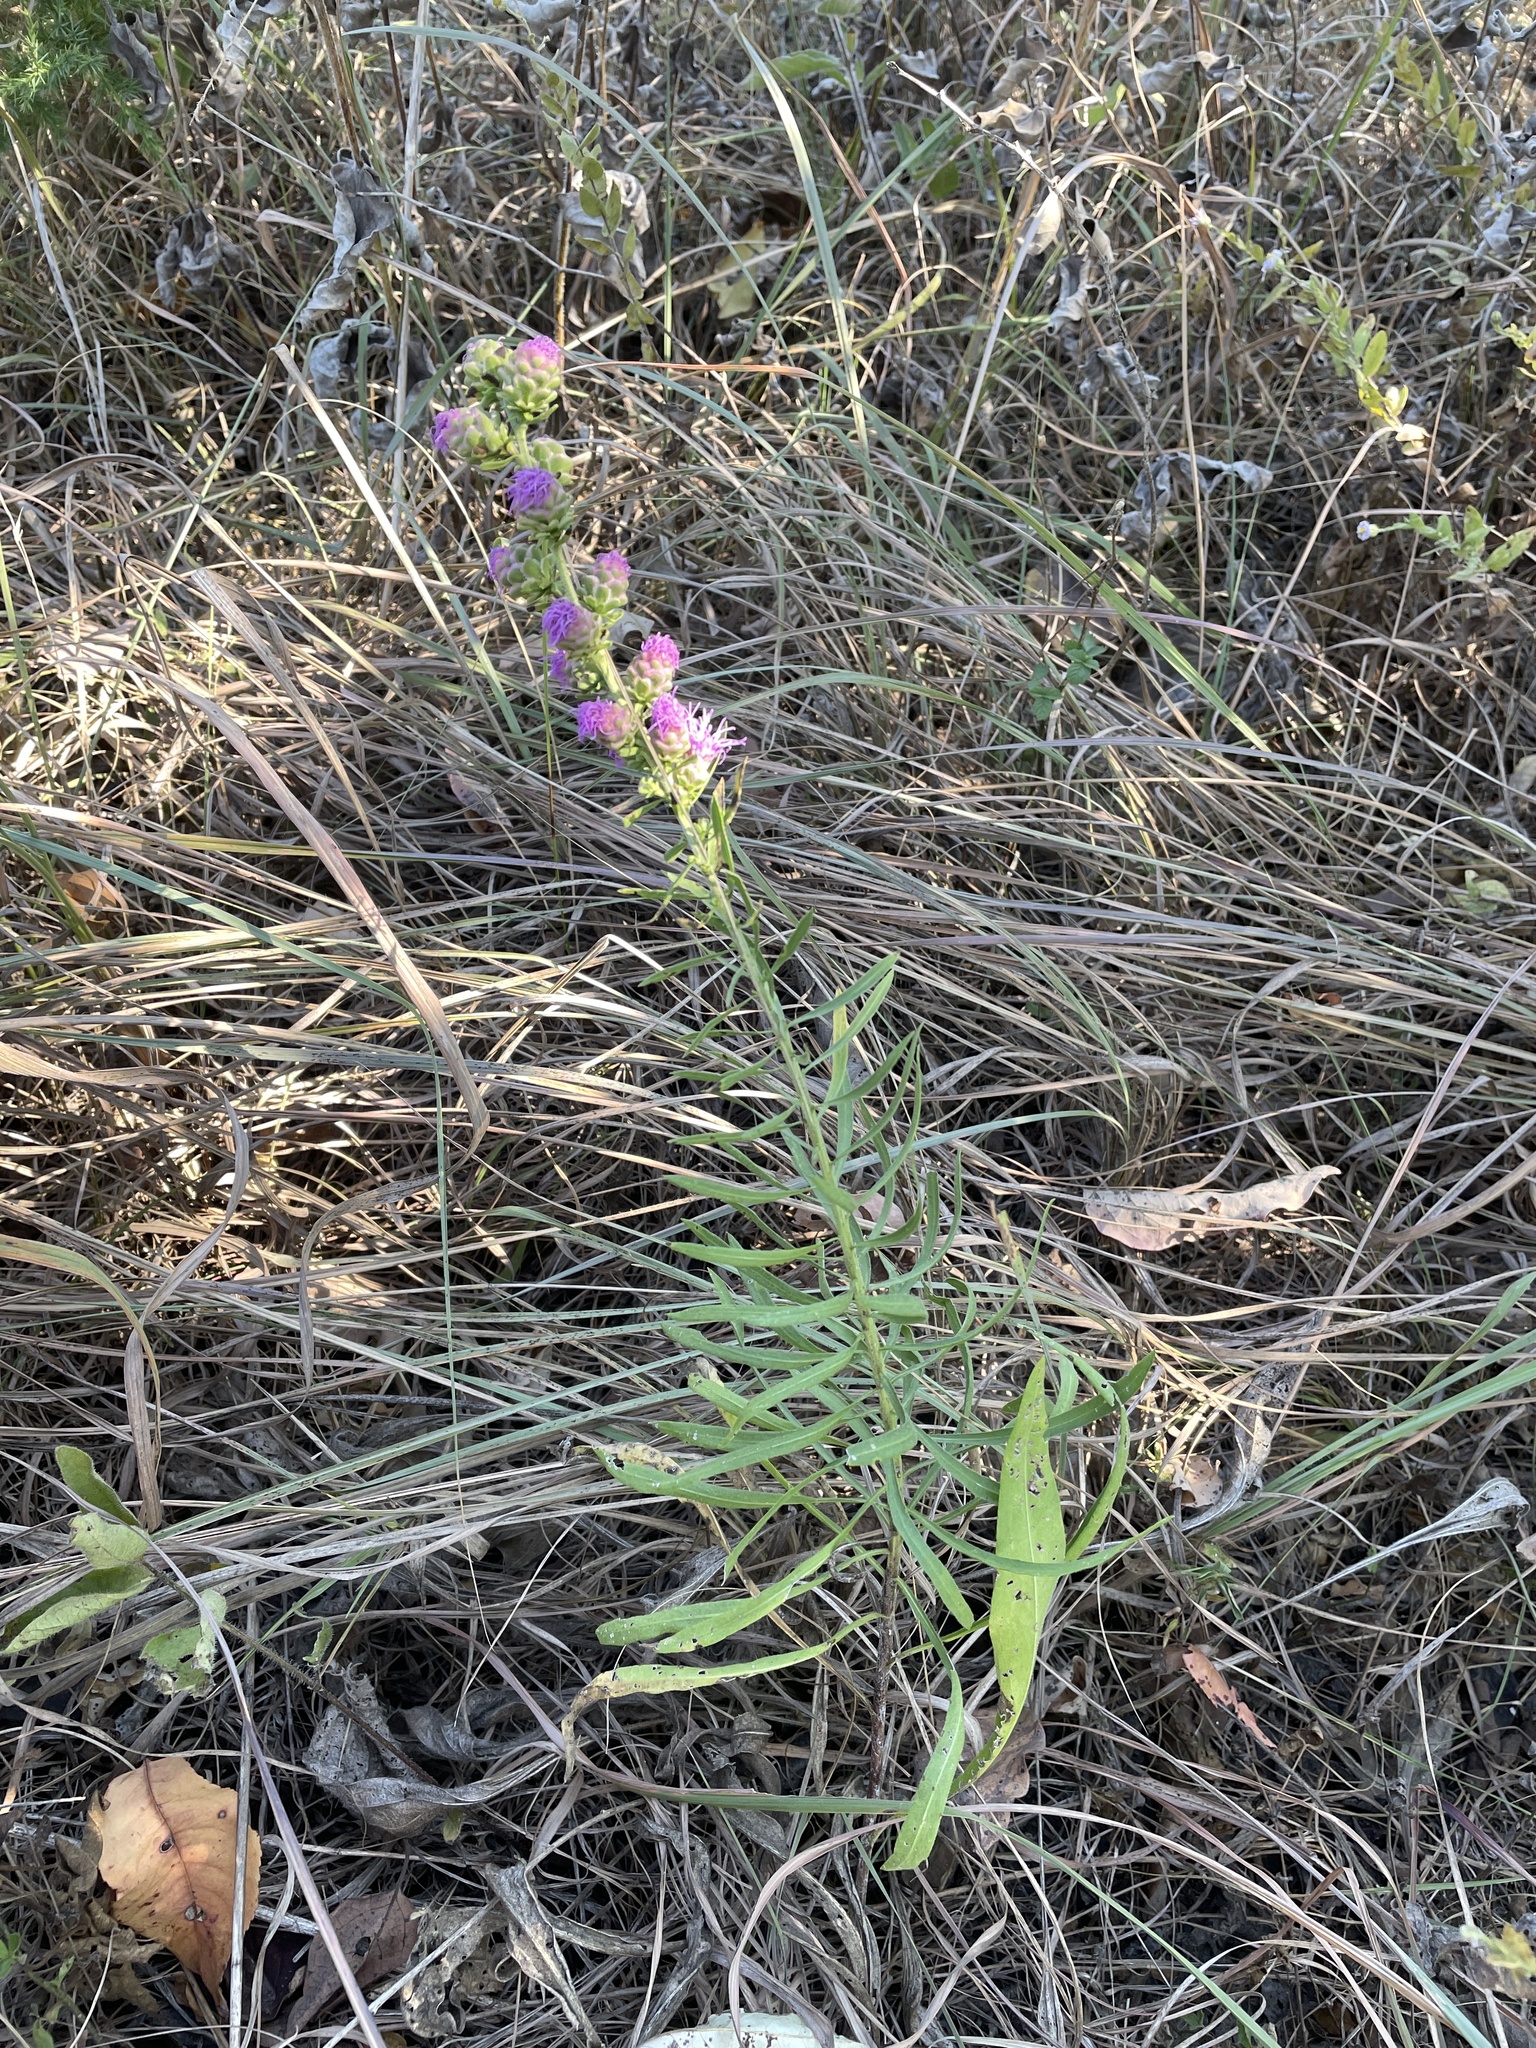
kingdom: Plantae
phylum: Tracheophyta
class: Magnoliopsida
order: Asterales
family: Asteraceae
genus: Liatris
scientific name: Liatris aspera
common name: Lacerate blazing-star
